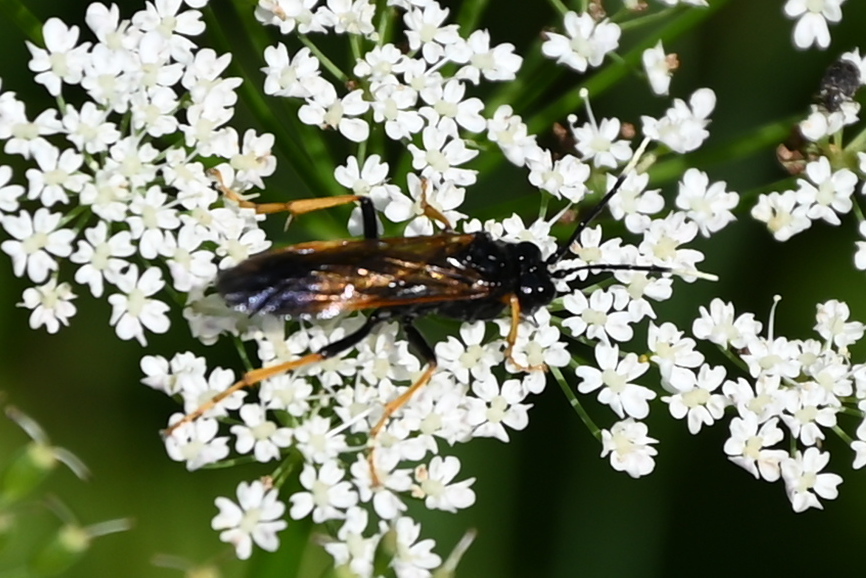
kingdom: Animalia
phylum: Arthropoda
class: Insecta
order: Hymenoptera
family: Tenthredinidae
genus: Tenthredo
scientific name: Tenthredo crassa
